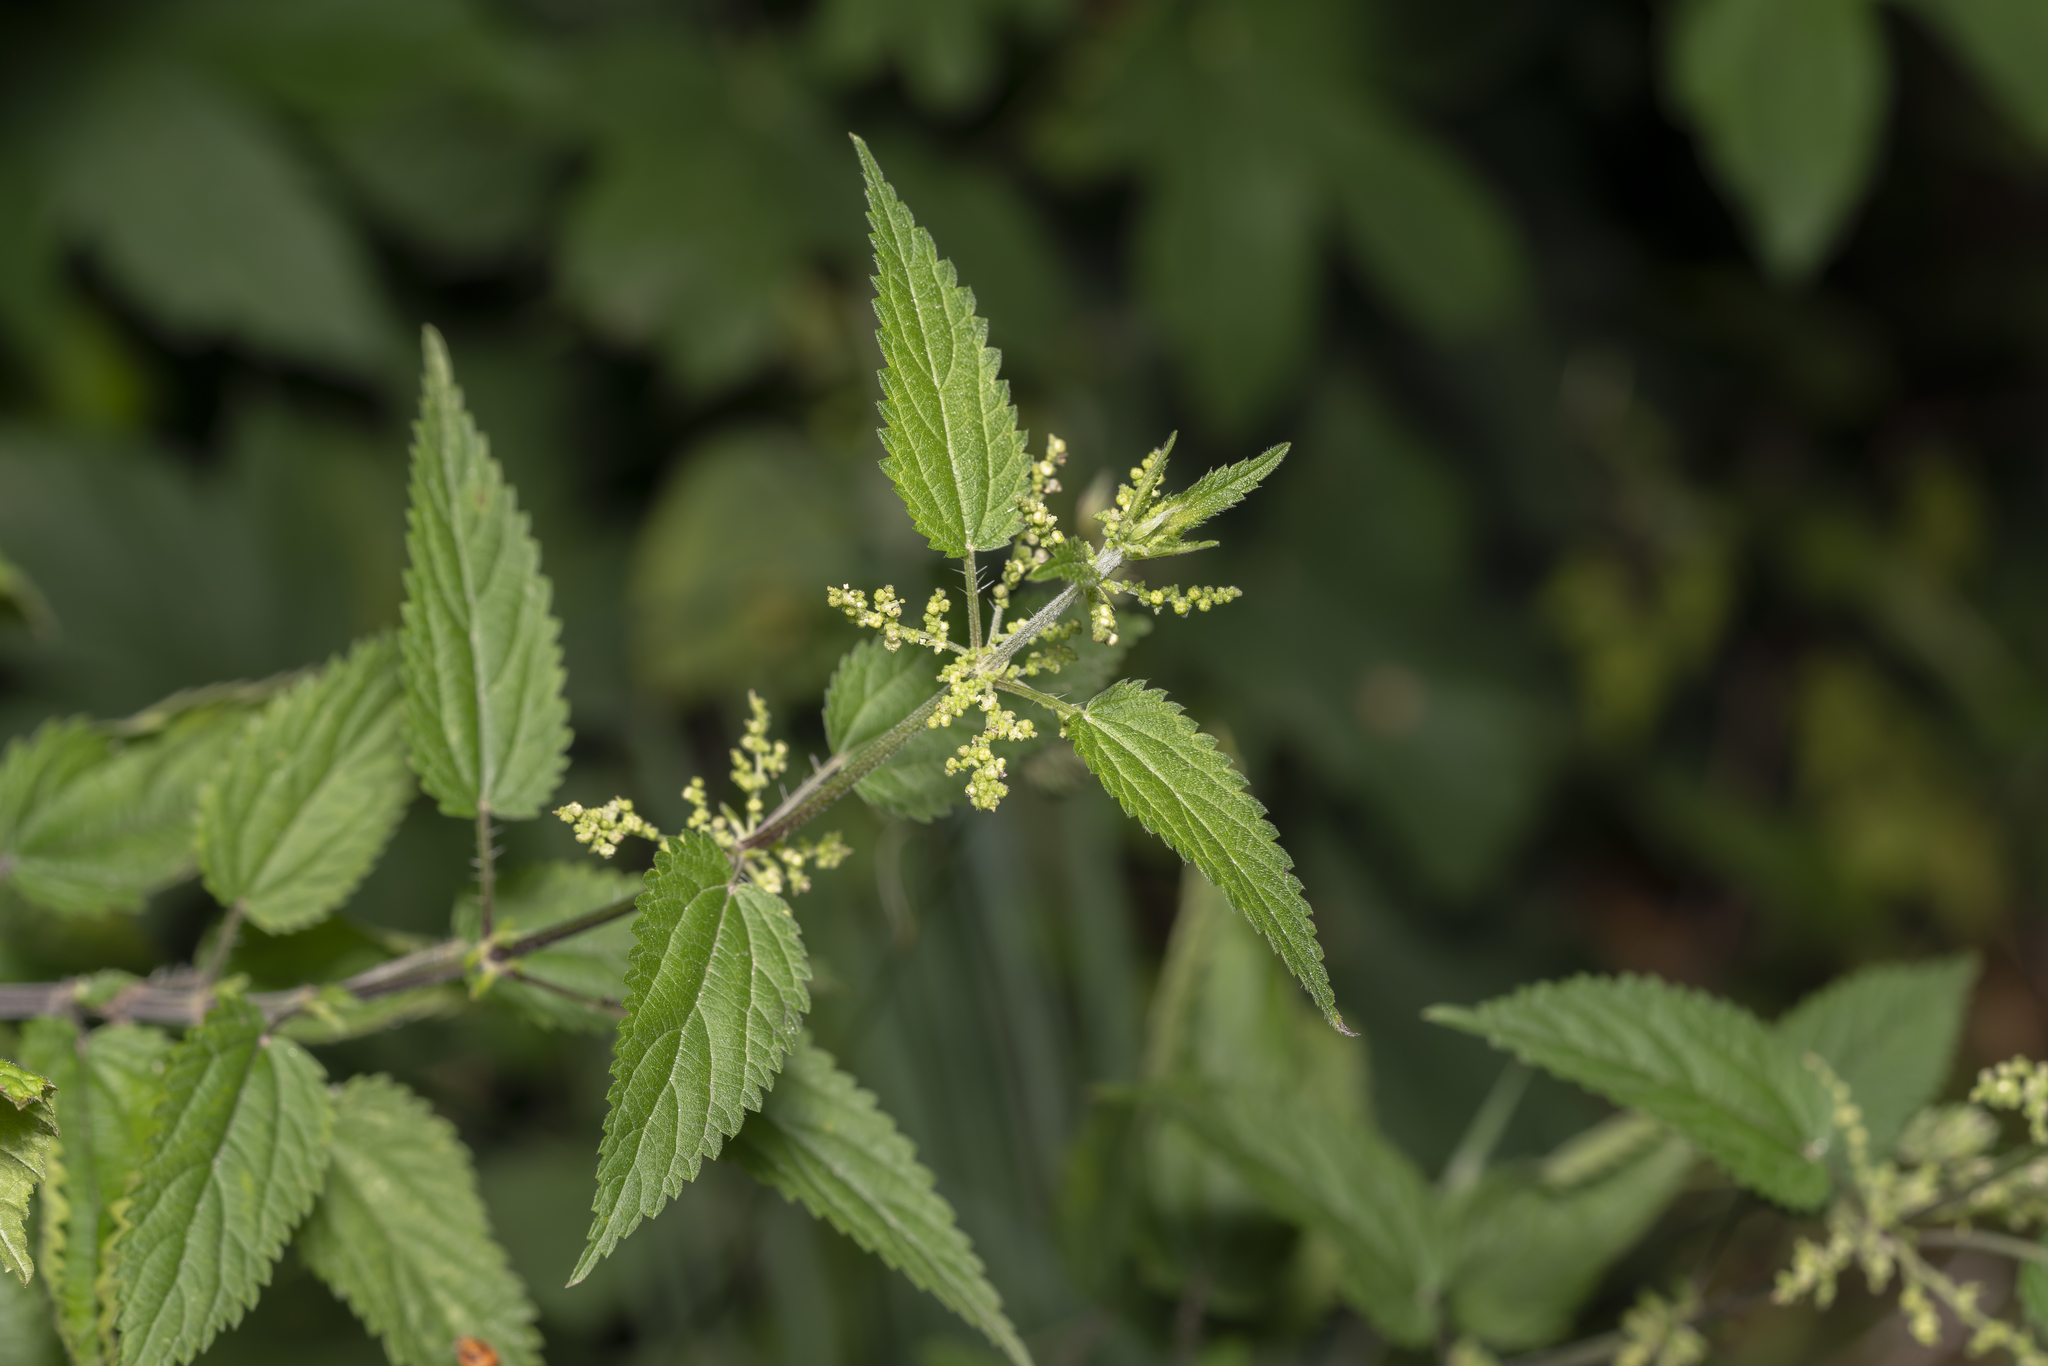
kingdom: Plantae
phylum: Tracheophyta
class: Magnoliopsida
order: Rosales
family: Urticaceae
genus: Urtica
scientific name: Urtica dioica
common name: Common nettle
